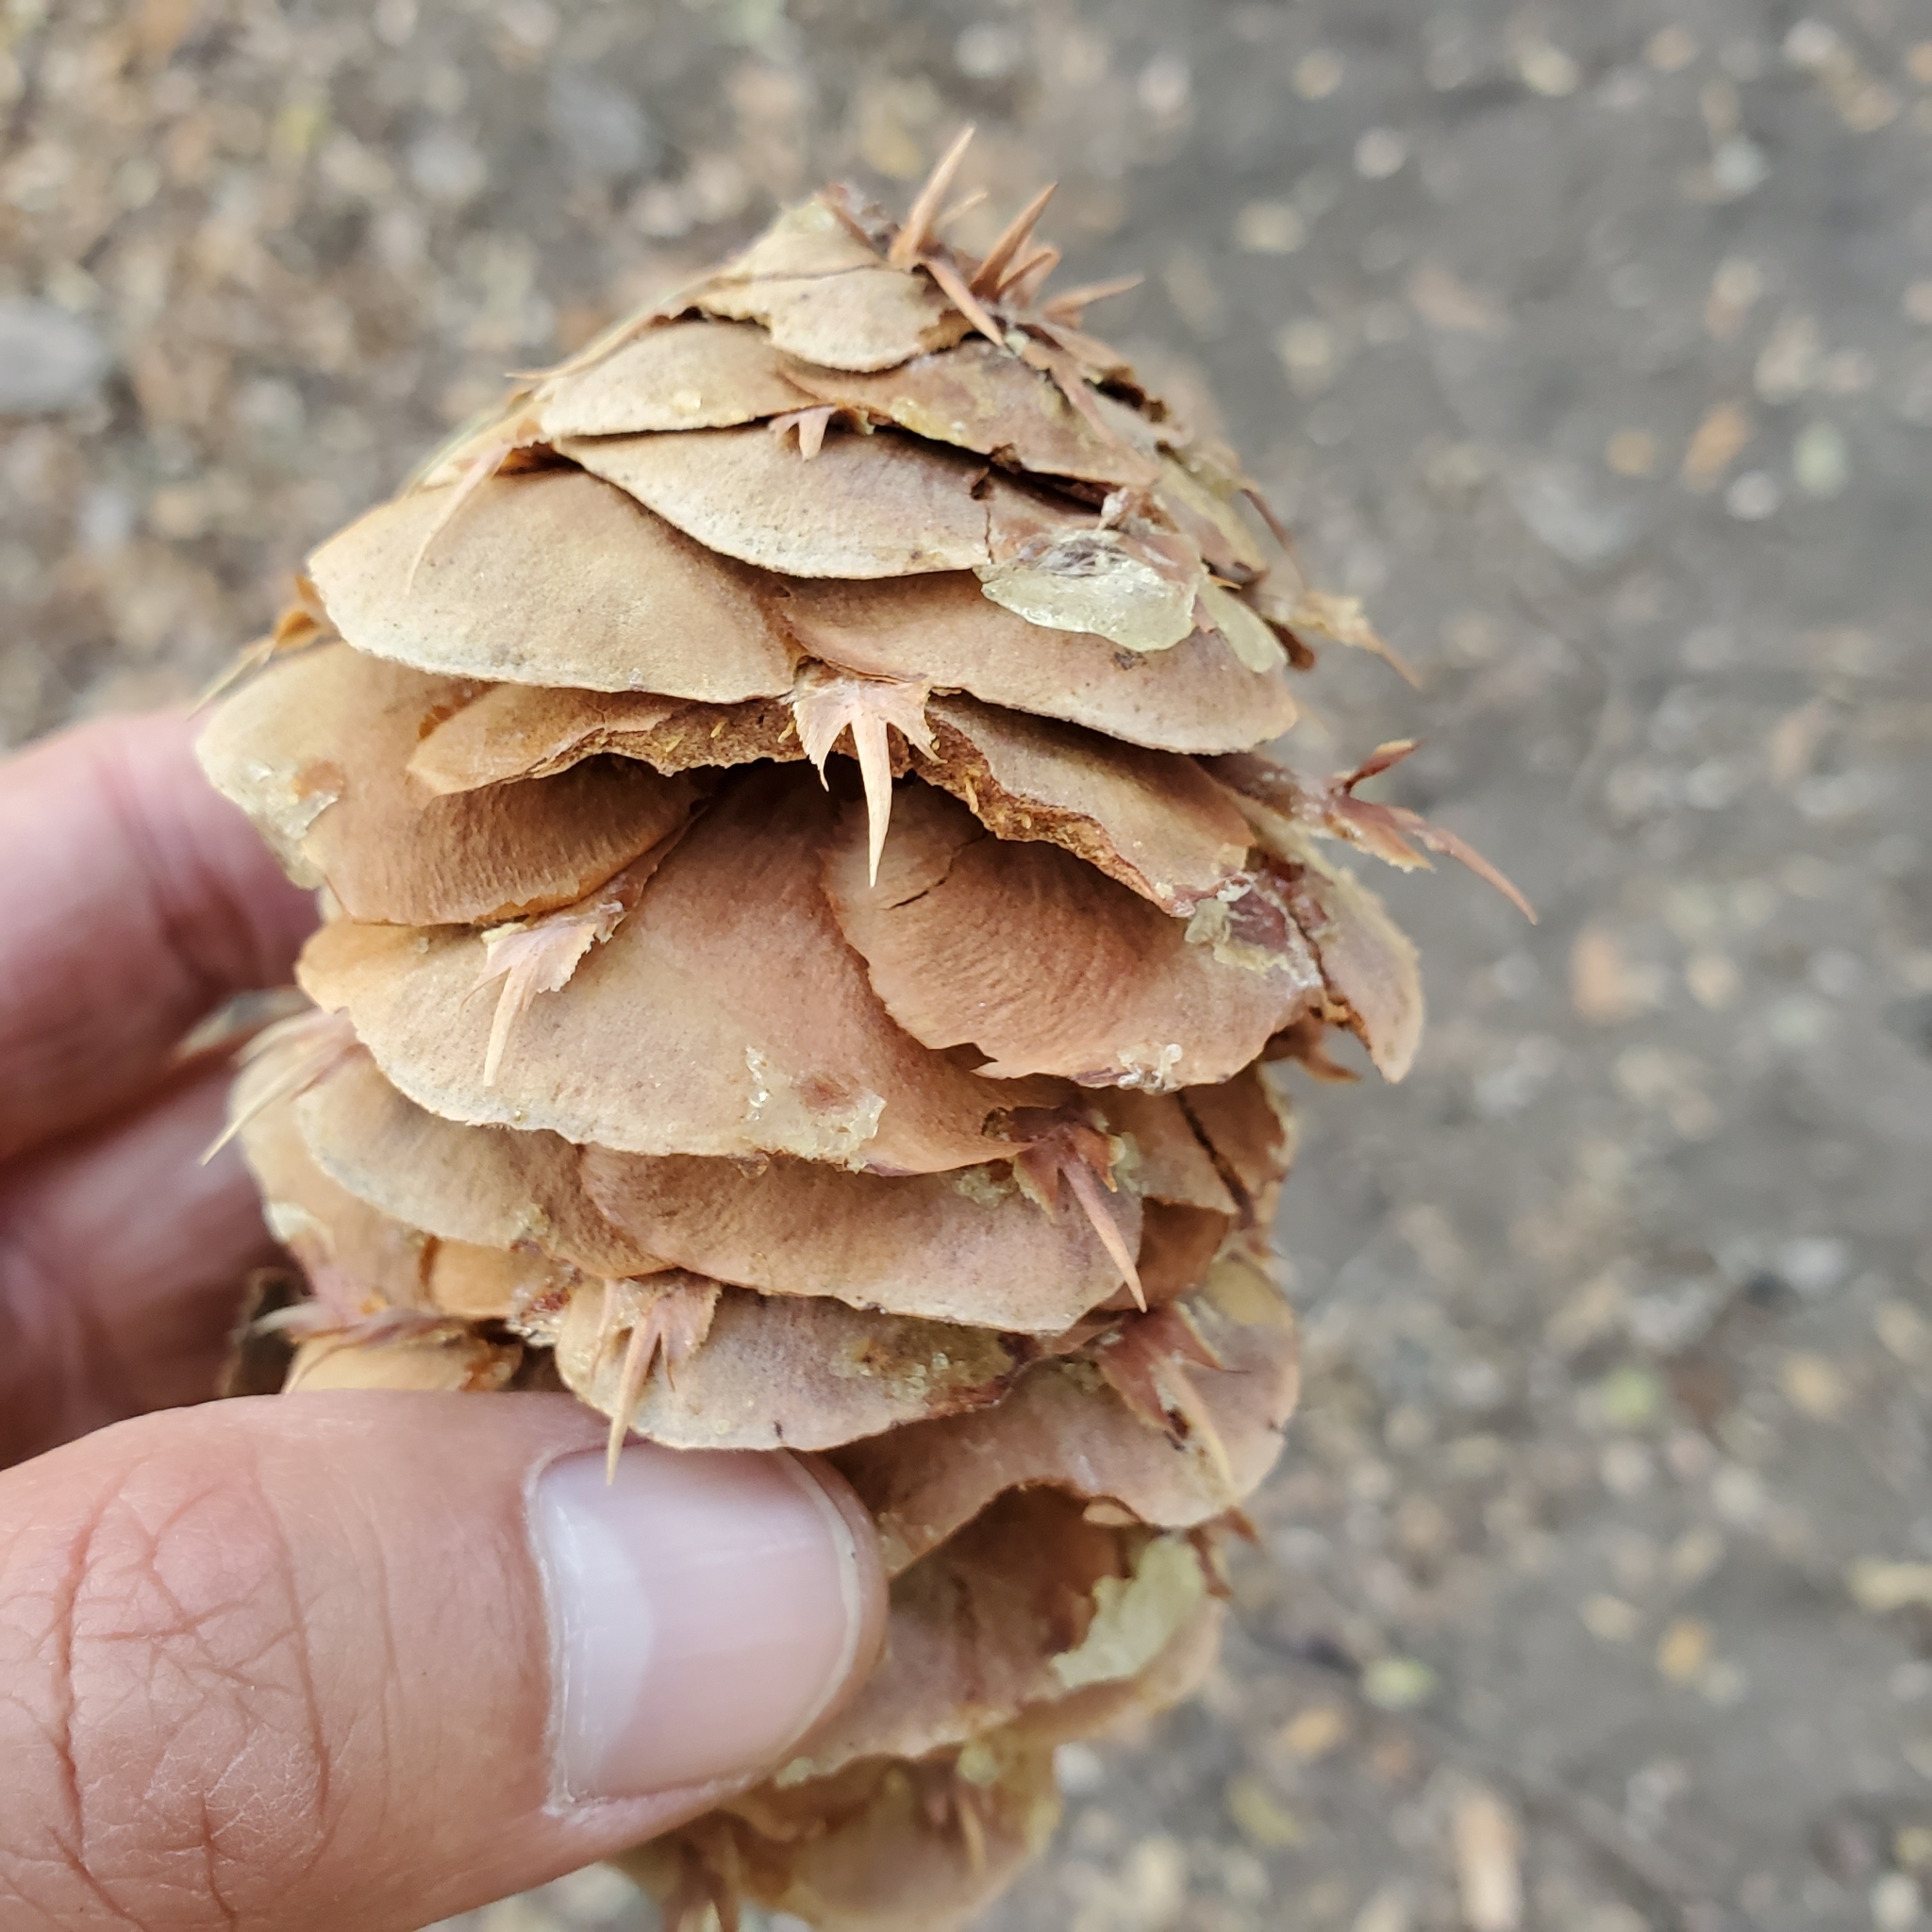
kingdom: Plantae
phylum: Tracheophyta
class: Pinopsida
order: Pinales
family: Pinaceae
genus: Pseudotsuga
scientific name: Pseudotsuga macrocarpa
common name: Big-cone douglas-fir
